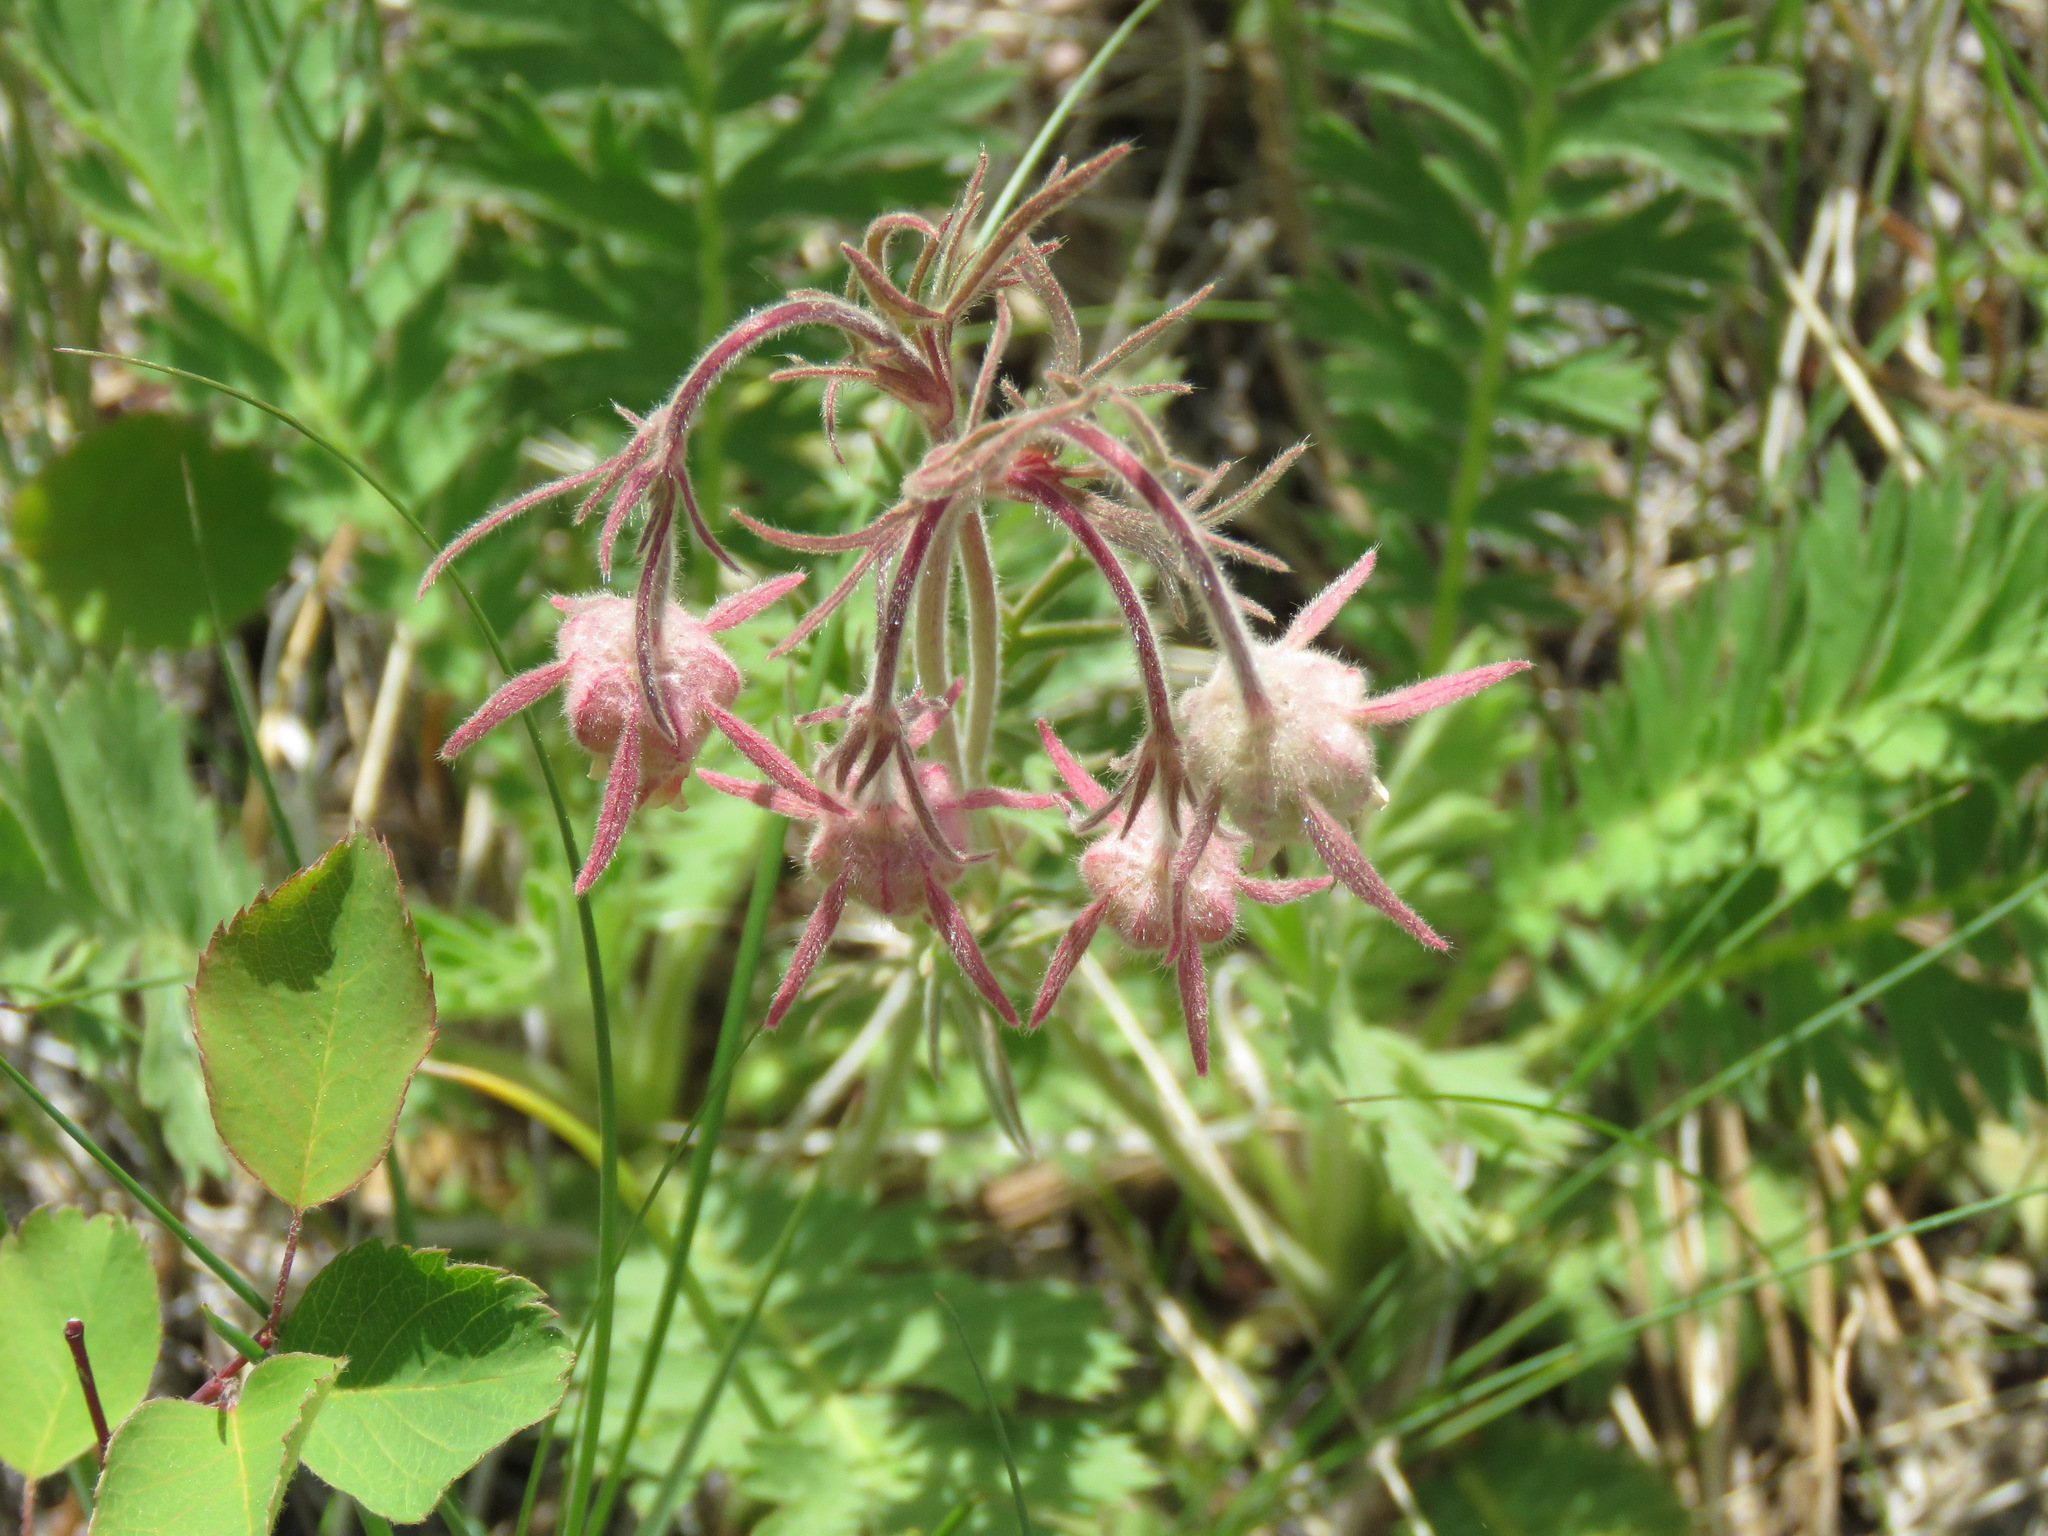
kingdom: Plantae
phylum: Tracheophyta
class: Magnoliopsida
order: Rosales
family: Rosaceae
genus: Geum
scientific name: Geum triflorum
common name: Old man's whiskers
